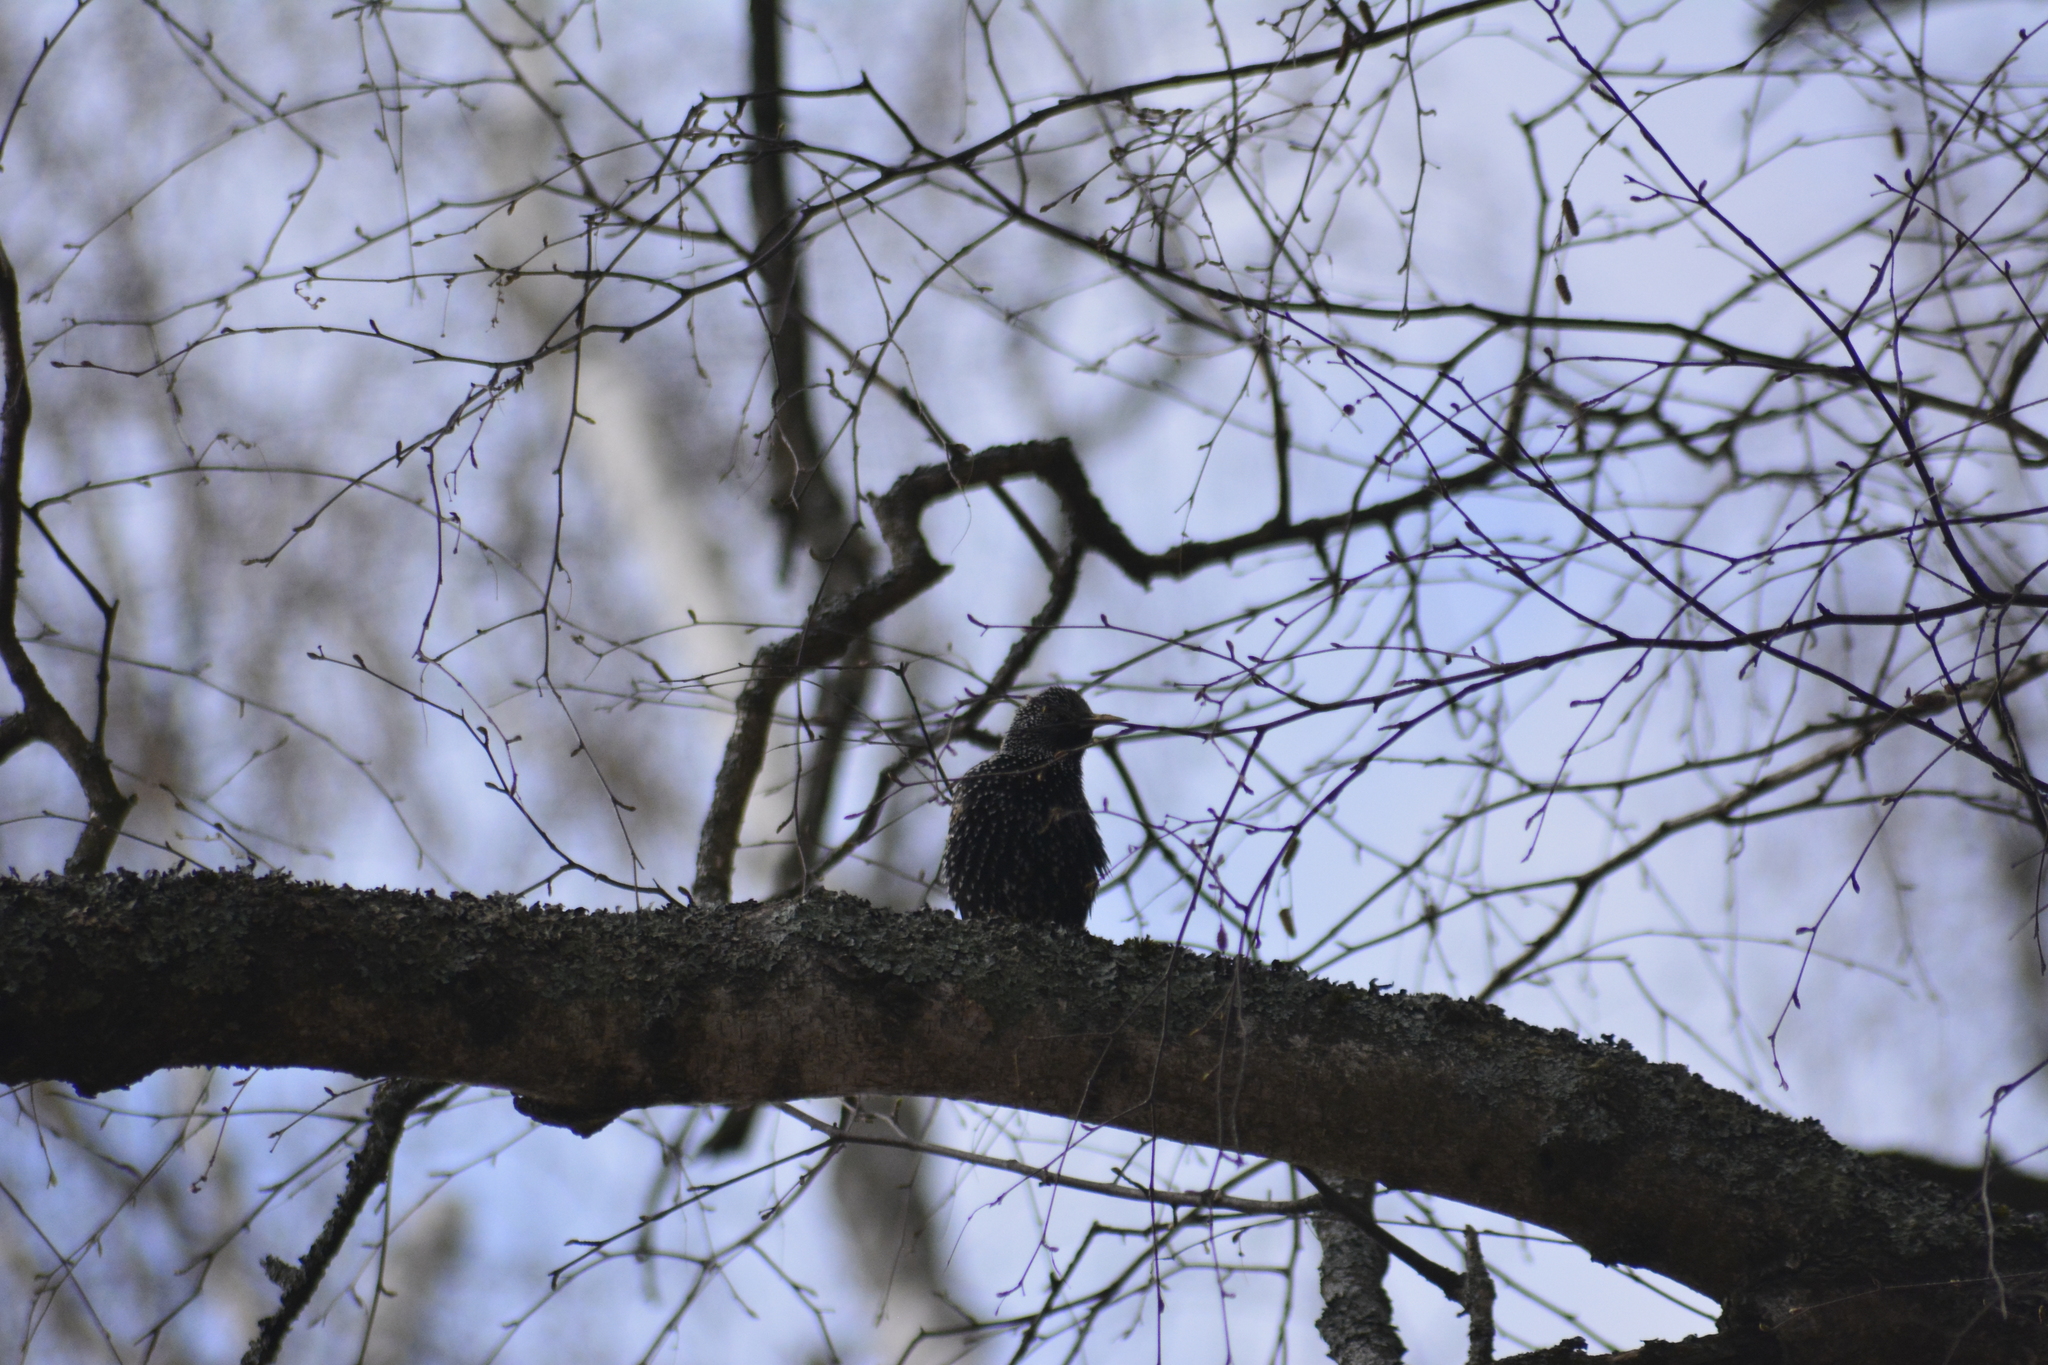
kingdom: Animalia
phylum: Chordata
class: Aves
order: Passeriformes
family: Sturnidae
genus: Sturnus
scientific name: Sturnus vulgaris
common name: Common starling
